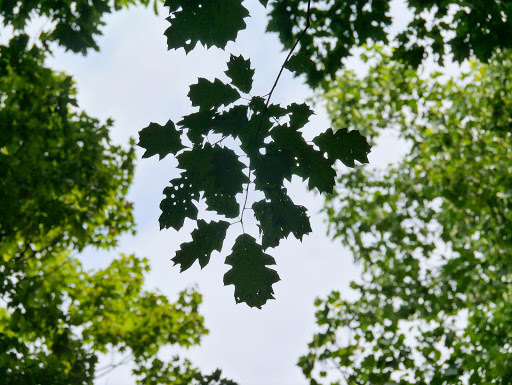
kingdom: Fungi
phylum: Basidiomycota
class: Agaricomycetes
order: Agaricales
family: Omphalotaceae
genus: Omphalotus
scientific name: Omphalotus illudens
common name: Jack o lantern
